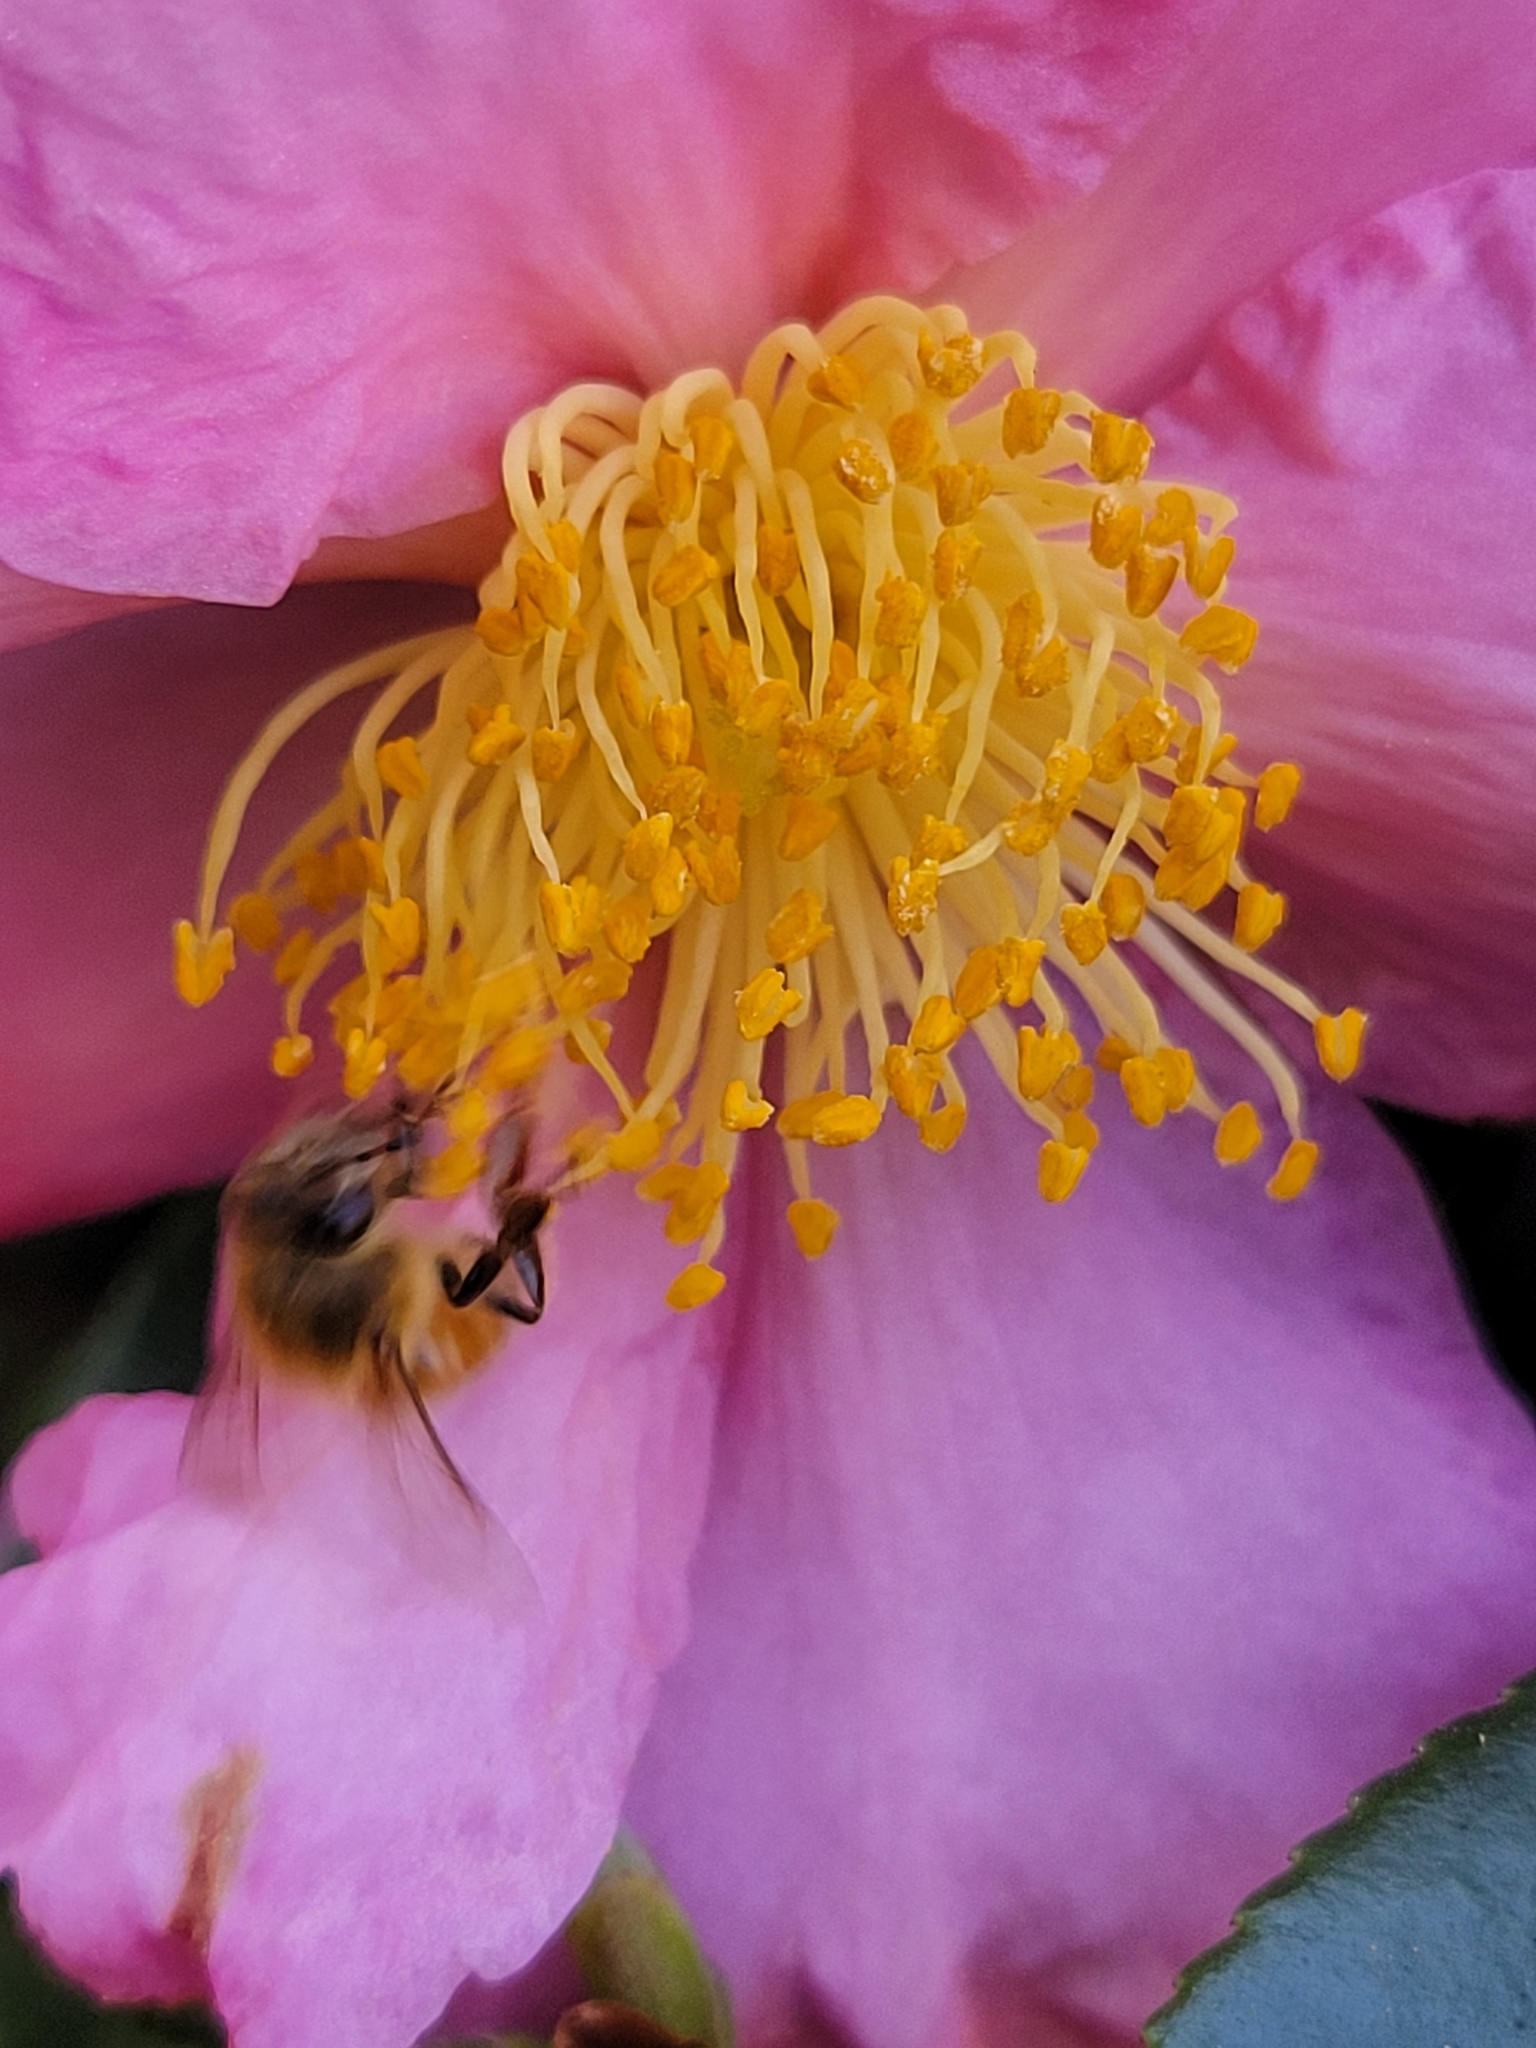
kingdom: Animalia
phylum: Arthropoda
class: Insecta
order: Hymenoptera
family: Apidae
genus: Apis
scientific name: Apis mellifera
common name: Honey bee
